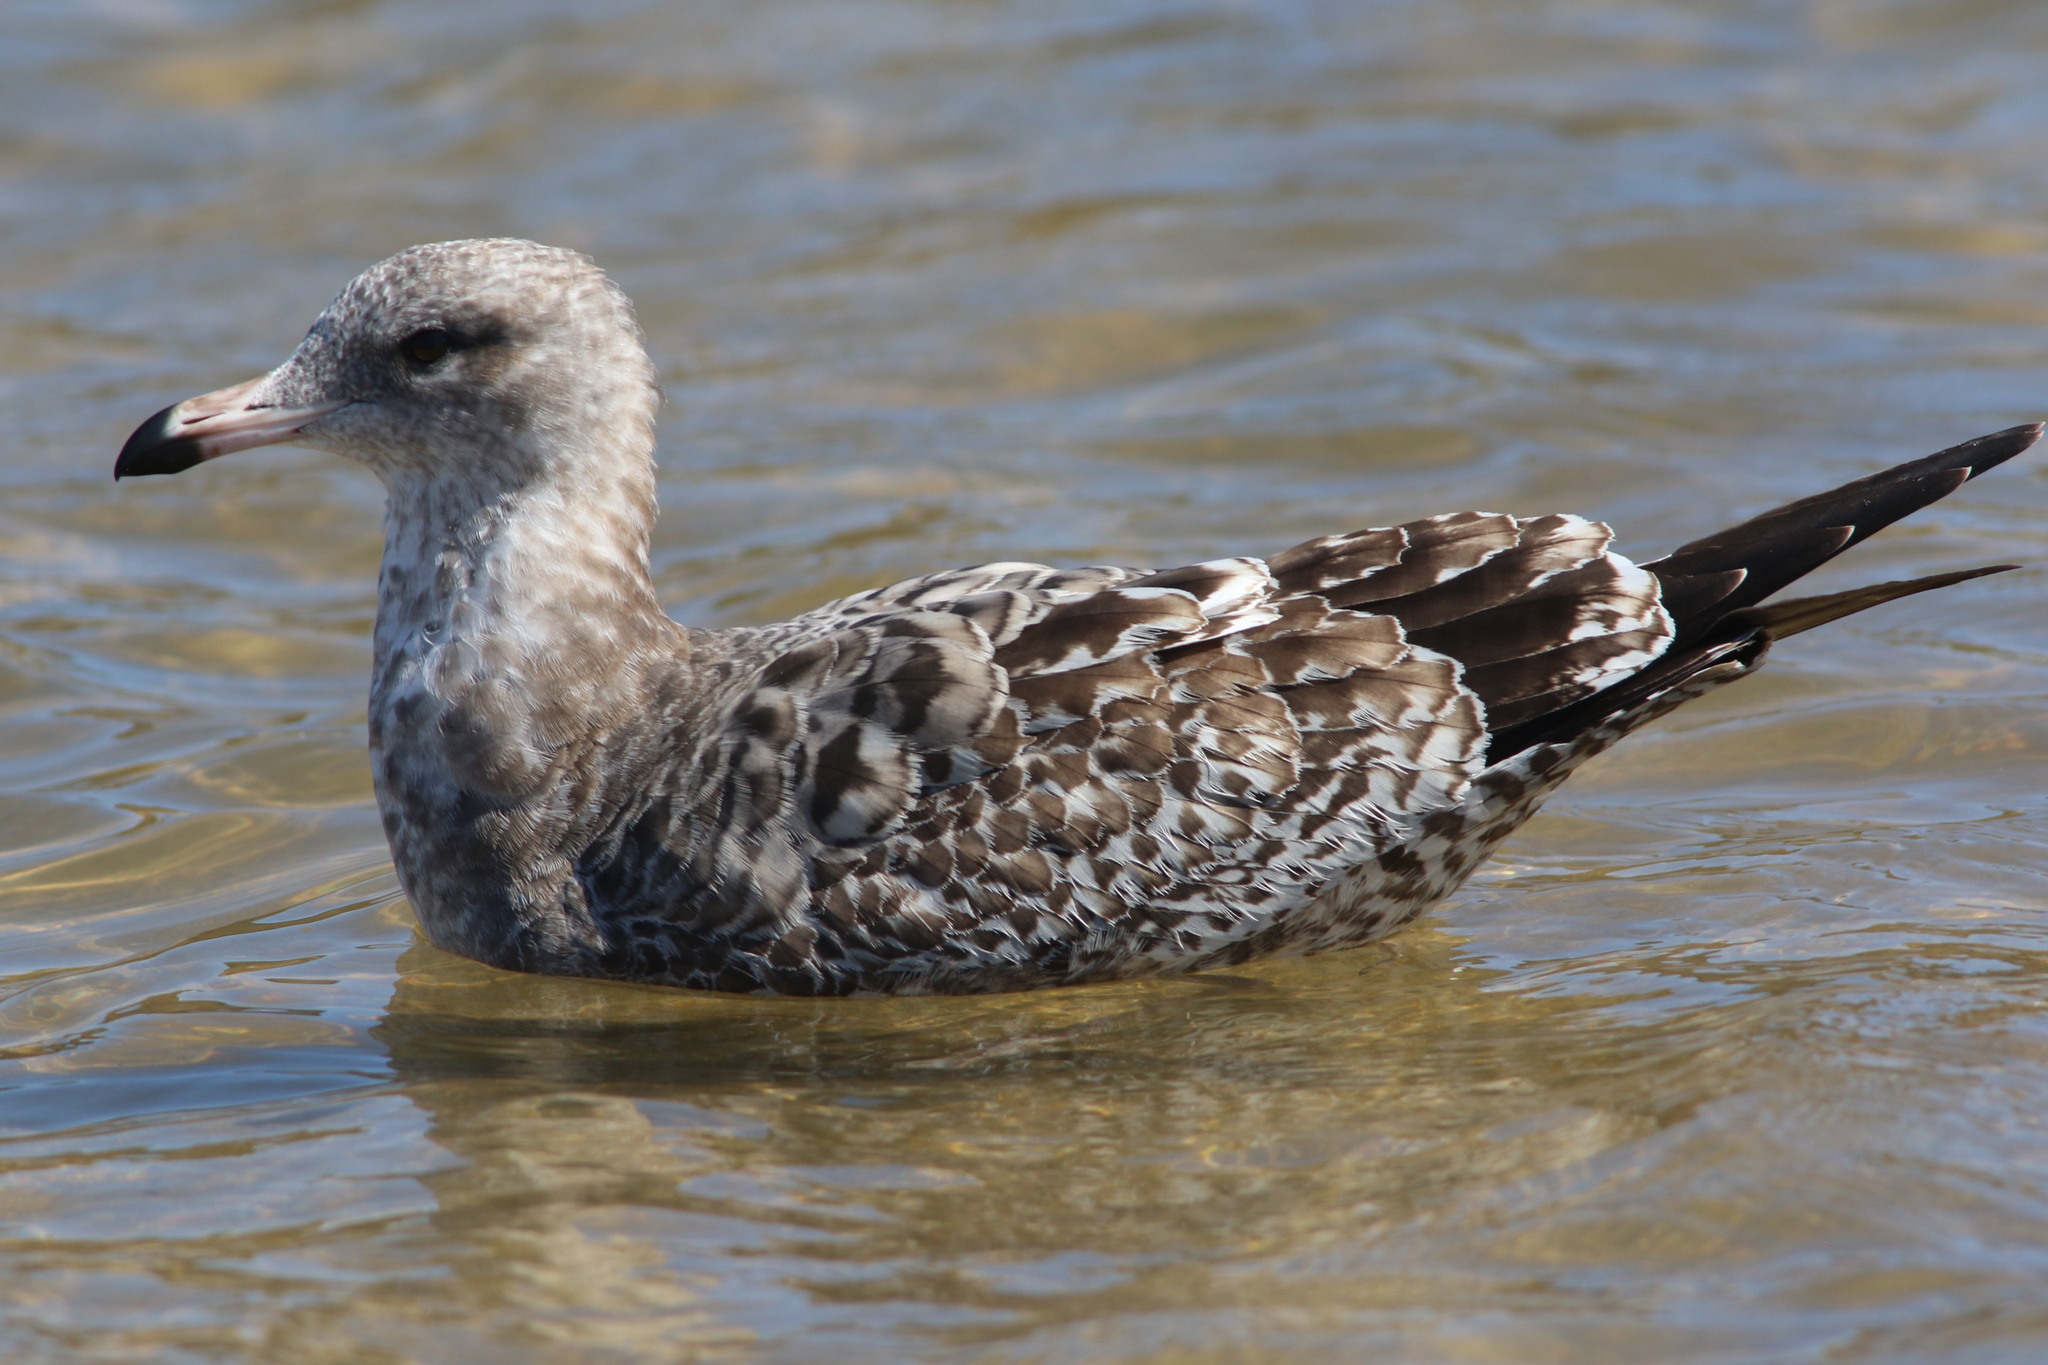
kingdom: Animalia
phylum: Chordata
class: Aves
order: Charadriiformes
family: Laridae
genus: Larus
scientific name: Larus californicus
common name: California gull
